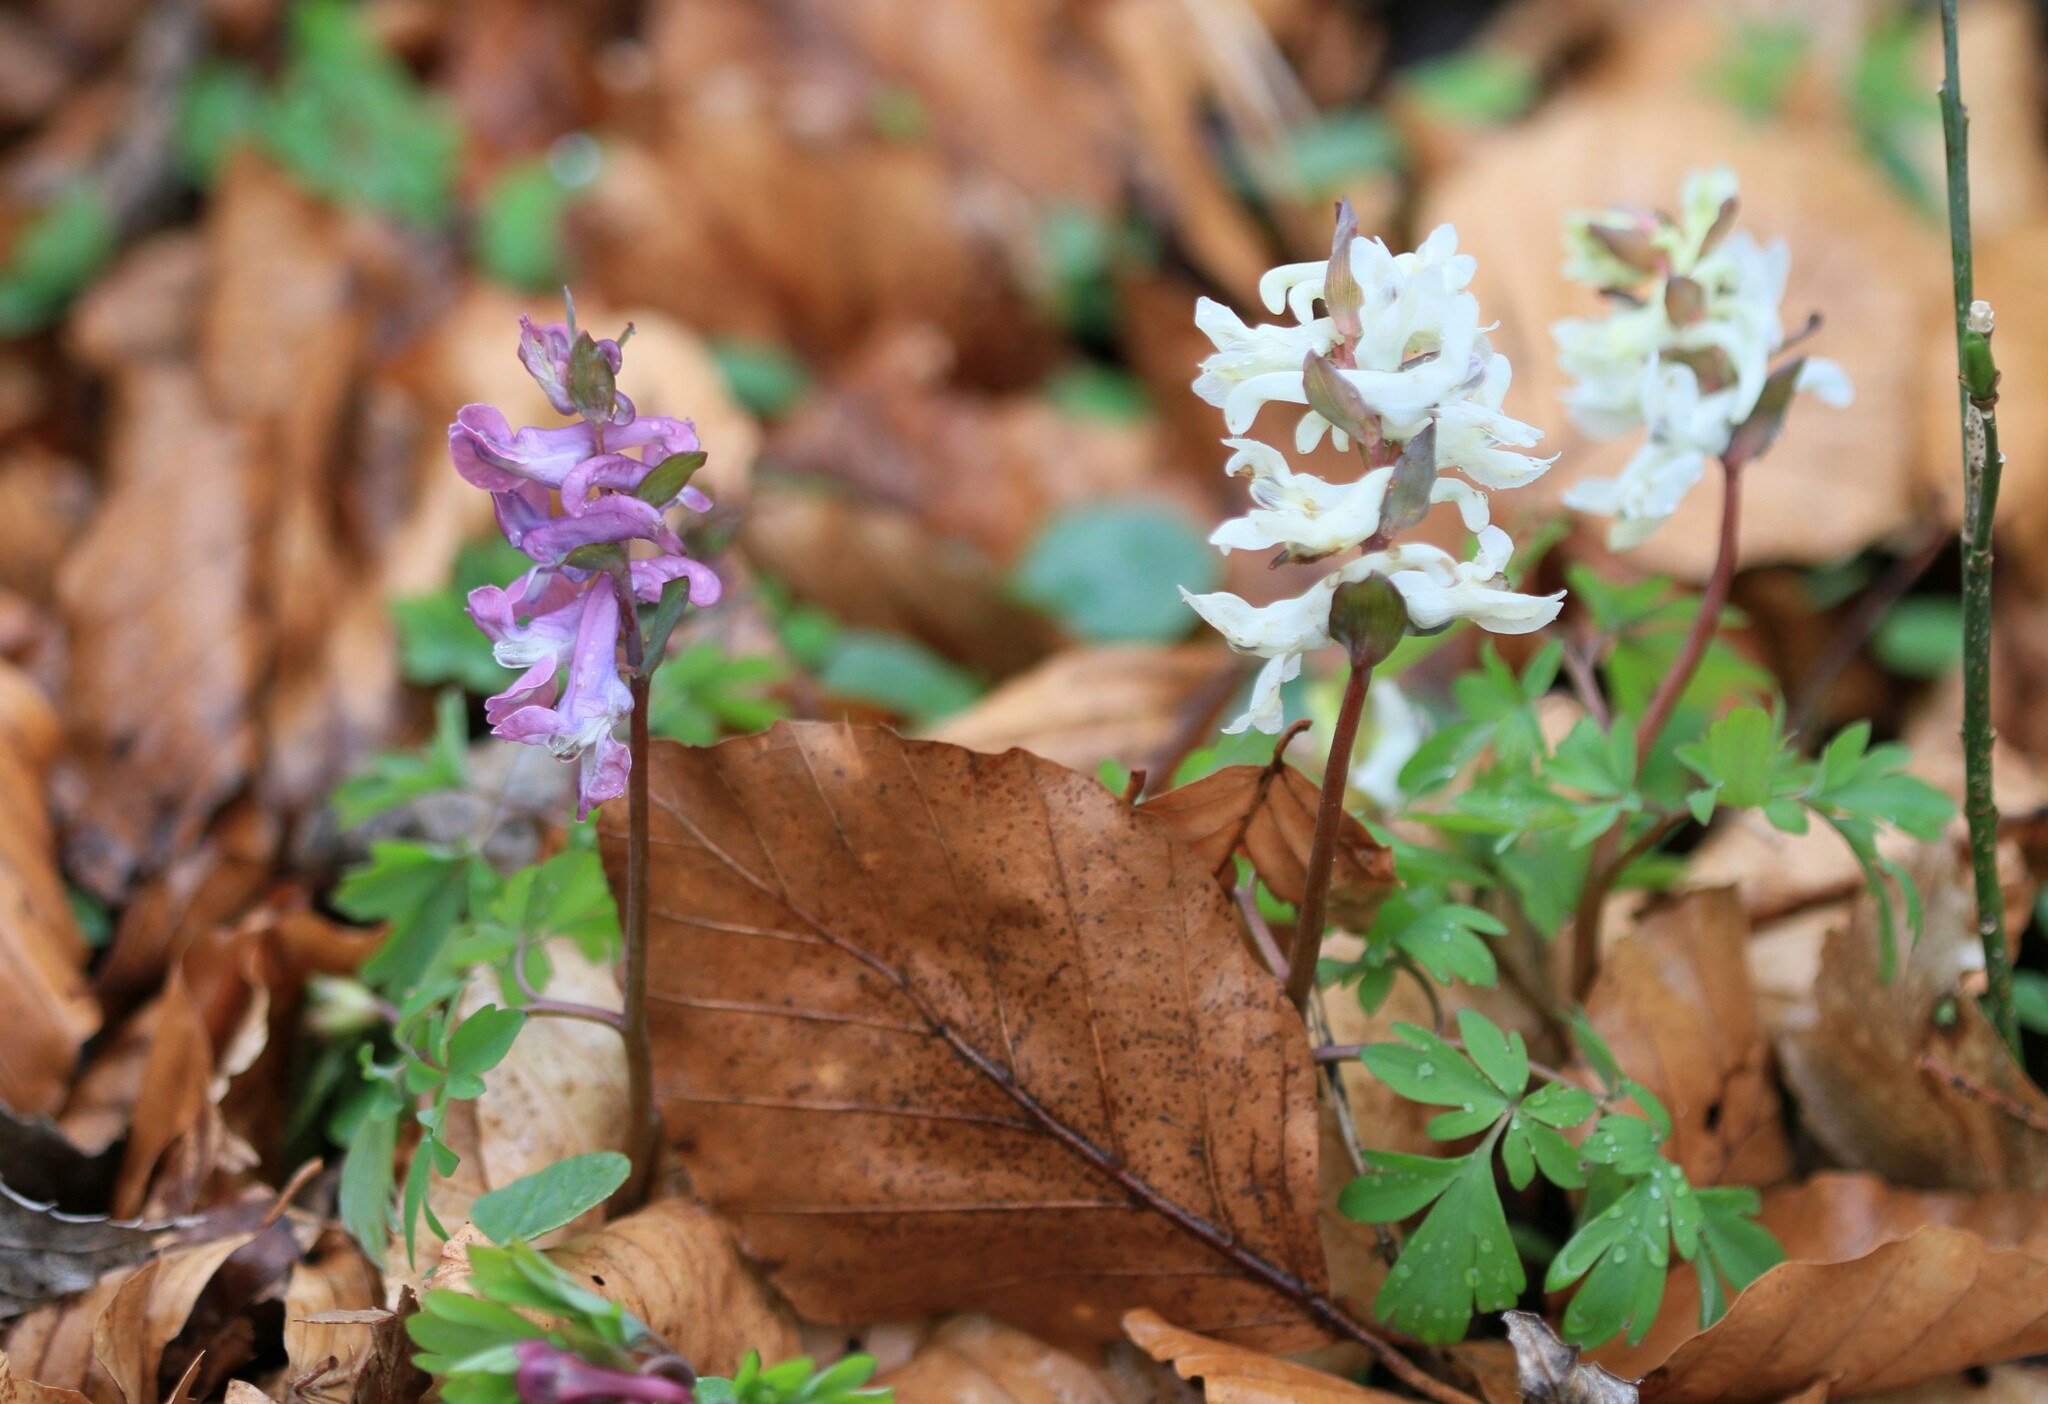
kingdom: Plantae
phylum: Tracheophyta
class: Magnoliopsida
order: Ranunculales
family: Papaveraceae
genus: Corydalis
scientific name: Corydalis cava
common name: Hollowroot
